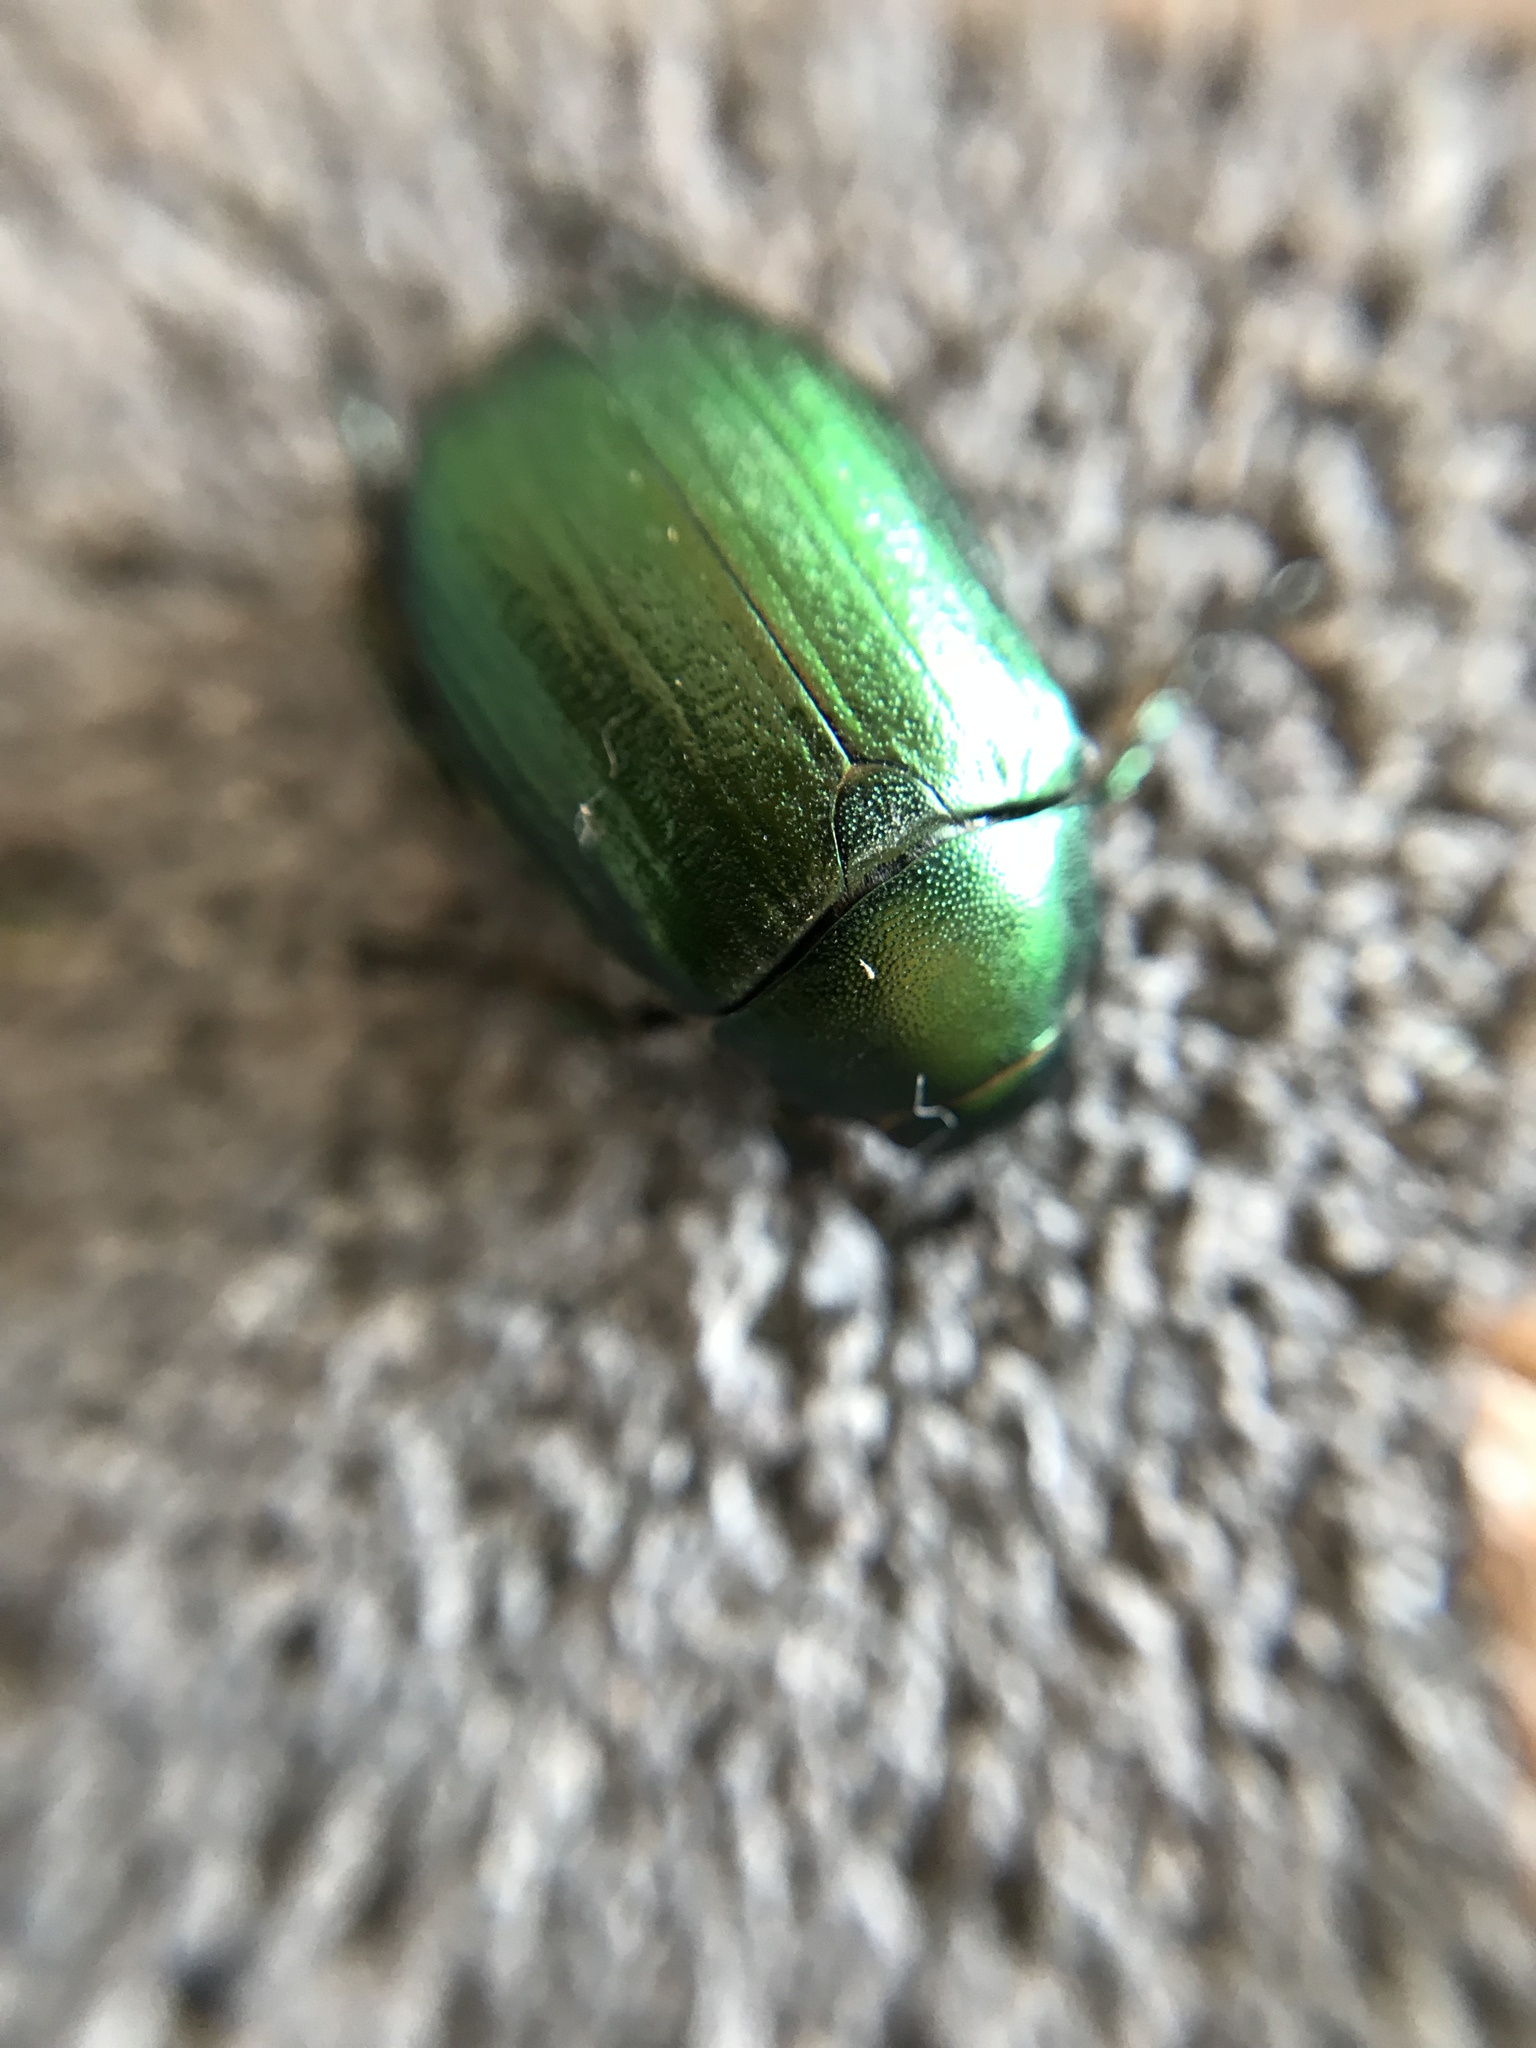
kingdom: Animalia
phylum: Arthropoda
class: Insecta
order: Coleoptera
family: Scarabaeidae
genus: Anomala
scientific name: Anomala vitis
